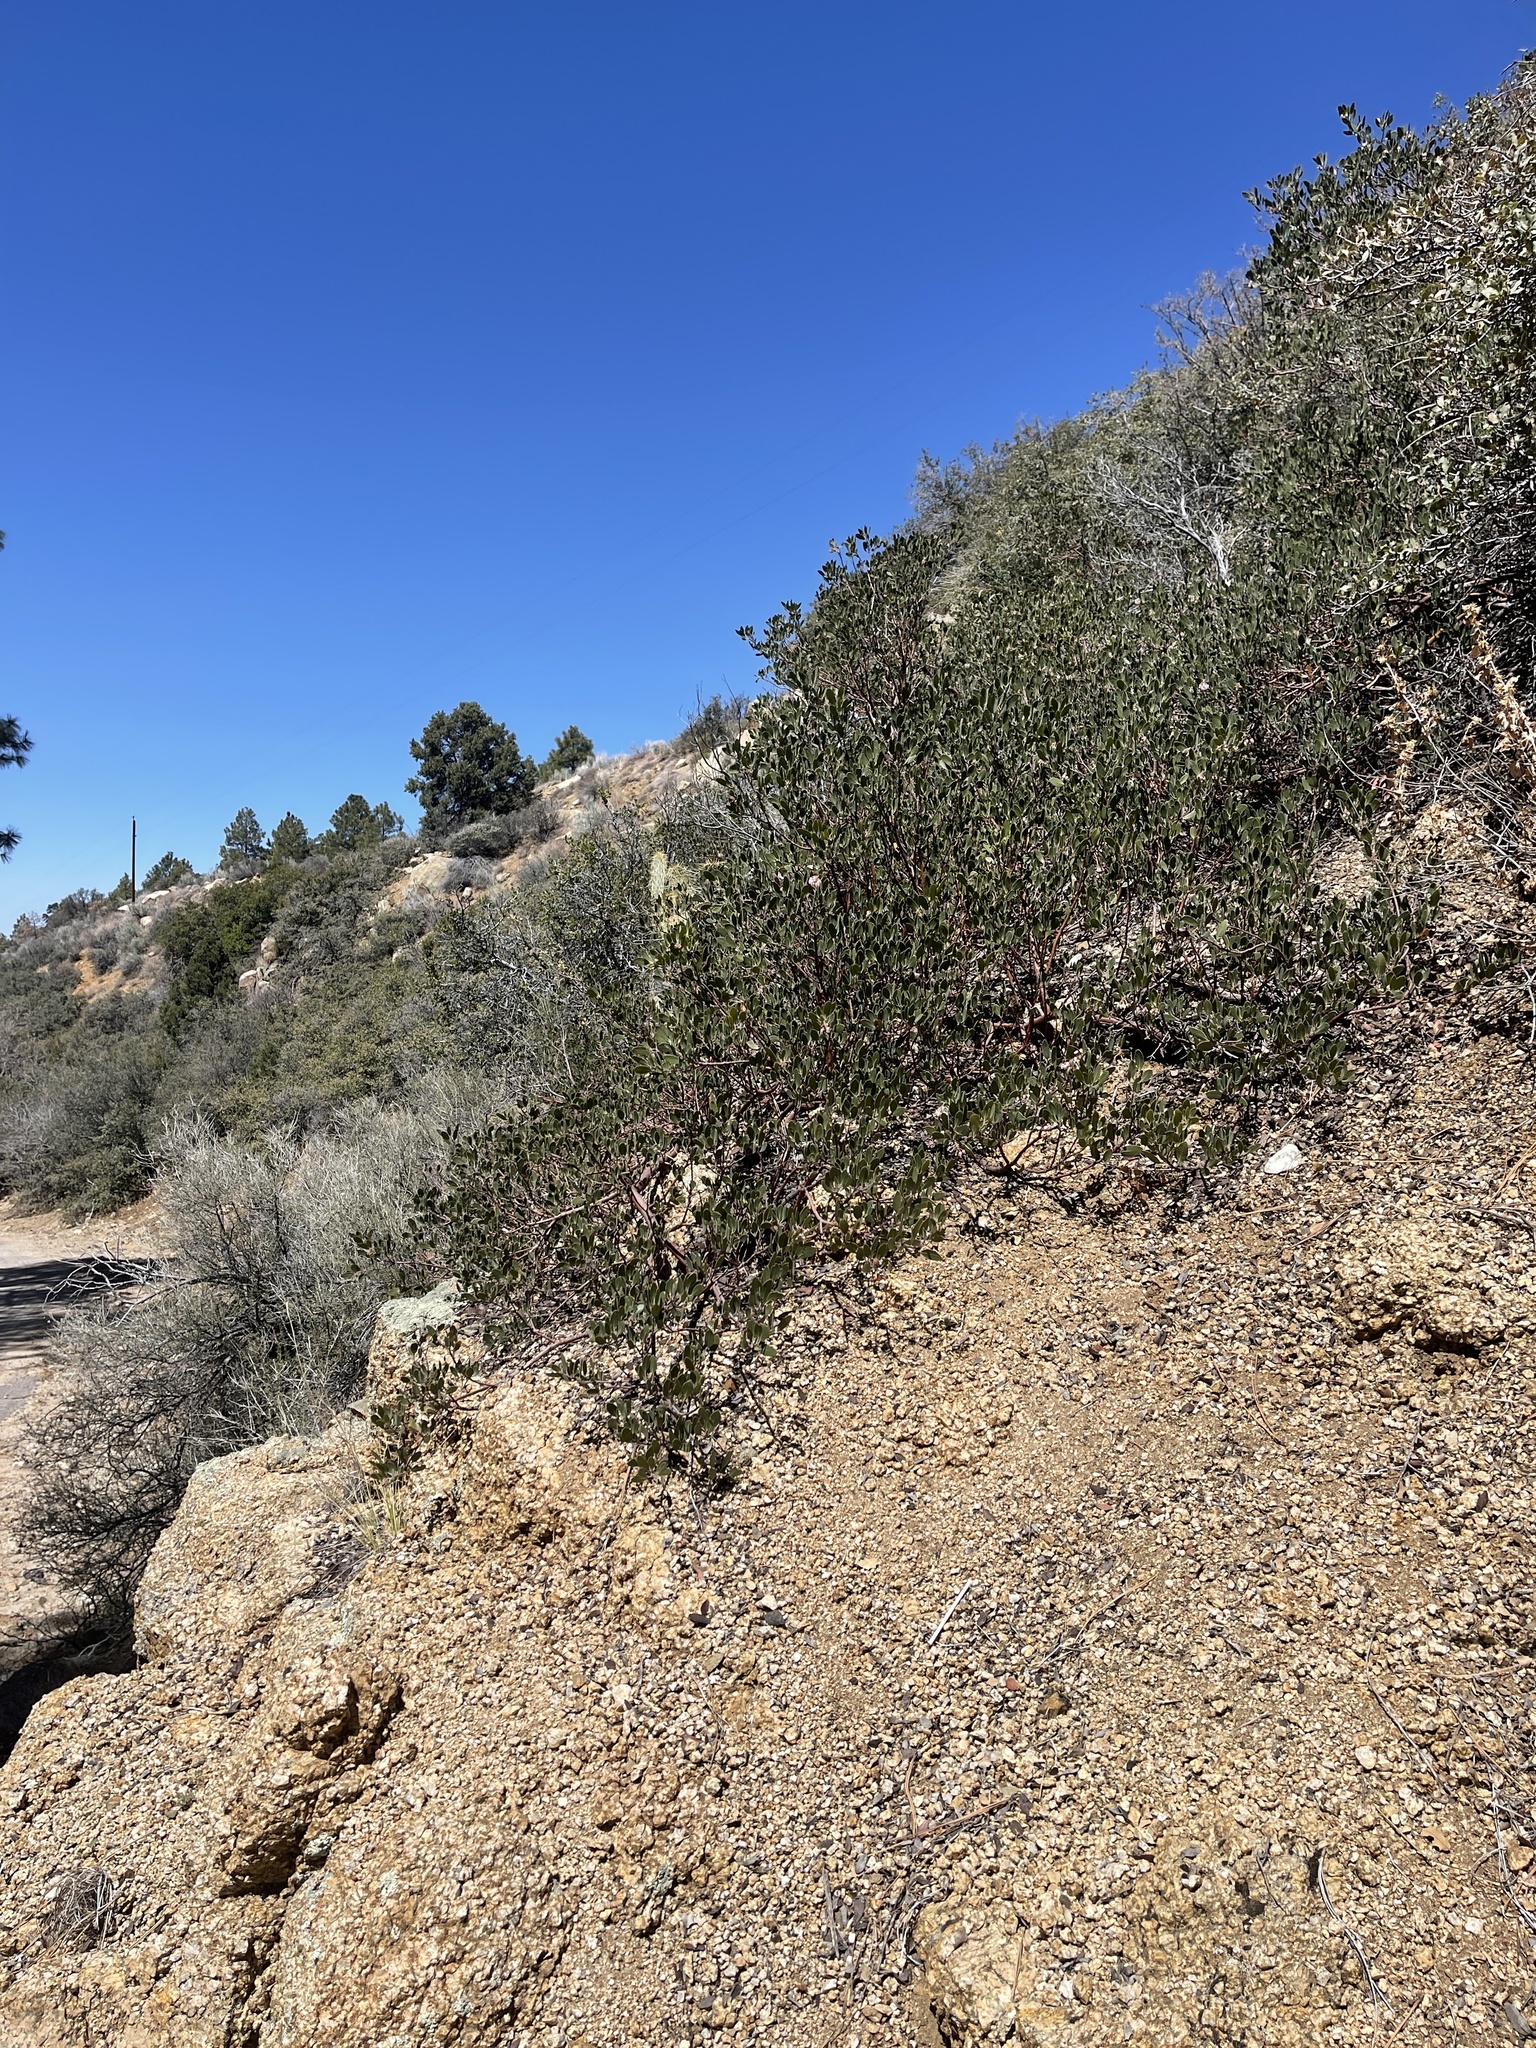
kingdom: Plantae
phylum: Tracheophyta
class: Magnoliopsida
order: Ericales
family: Ericaceae
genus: Arctostaphylos
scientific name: Arctostaphylos pungens
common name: Mexican manzanita
